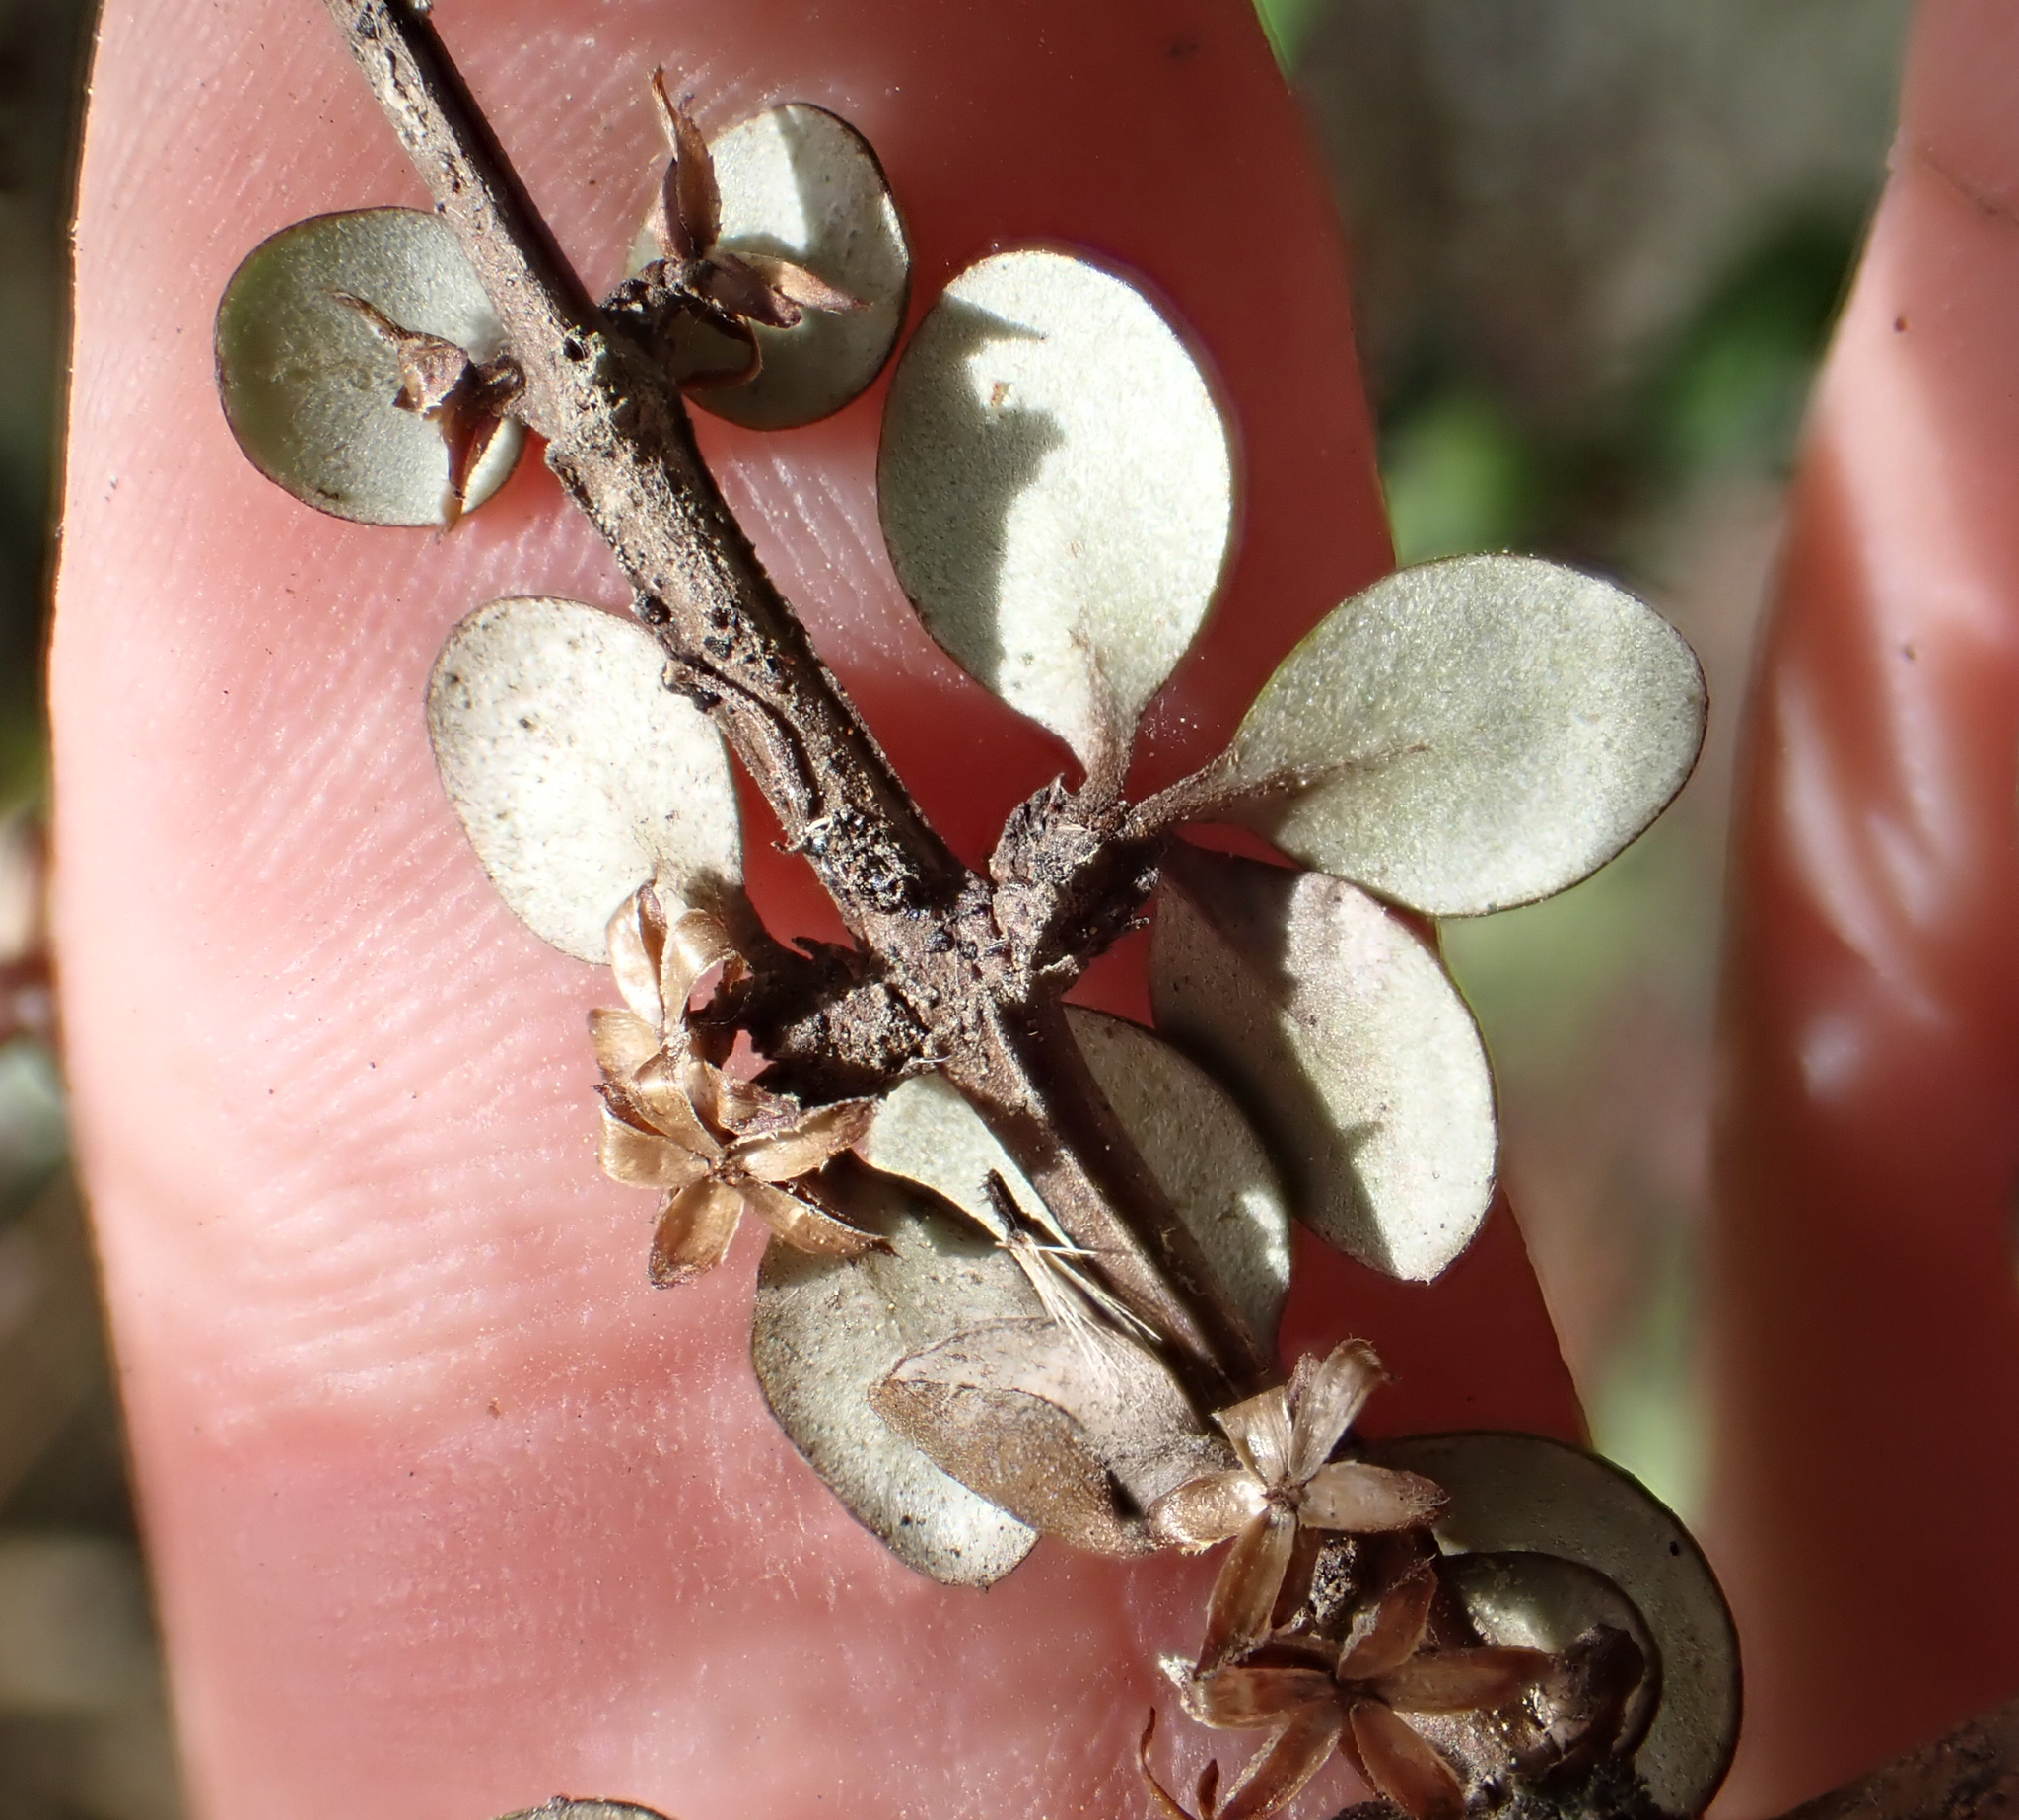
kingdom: Plantae
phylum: Tracheophyta
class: Magnoliopsida
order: Asterales
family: Asteraceae
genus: Olearia
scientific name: Olearia polita
